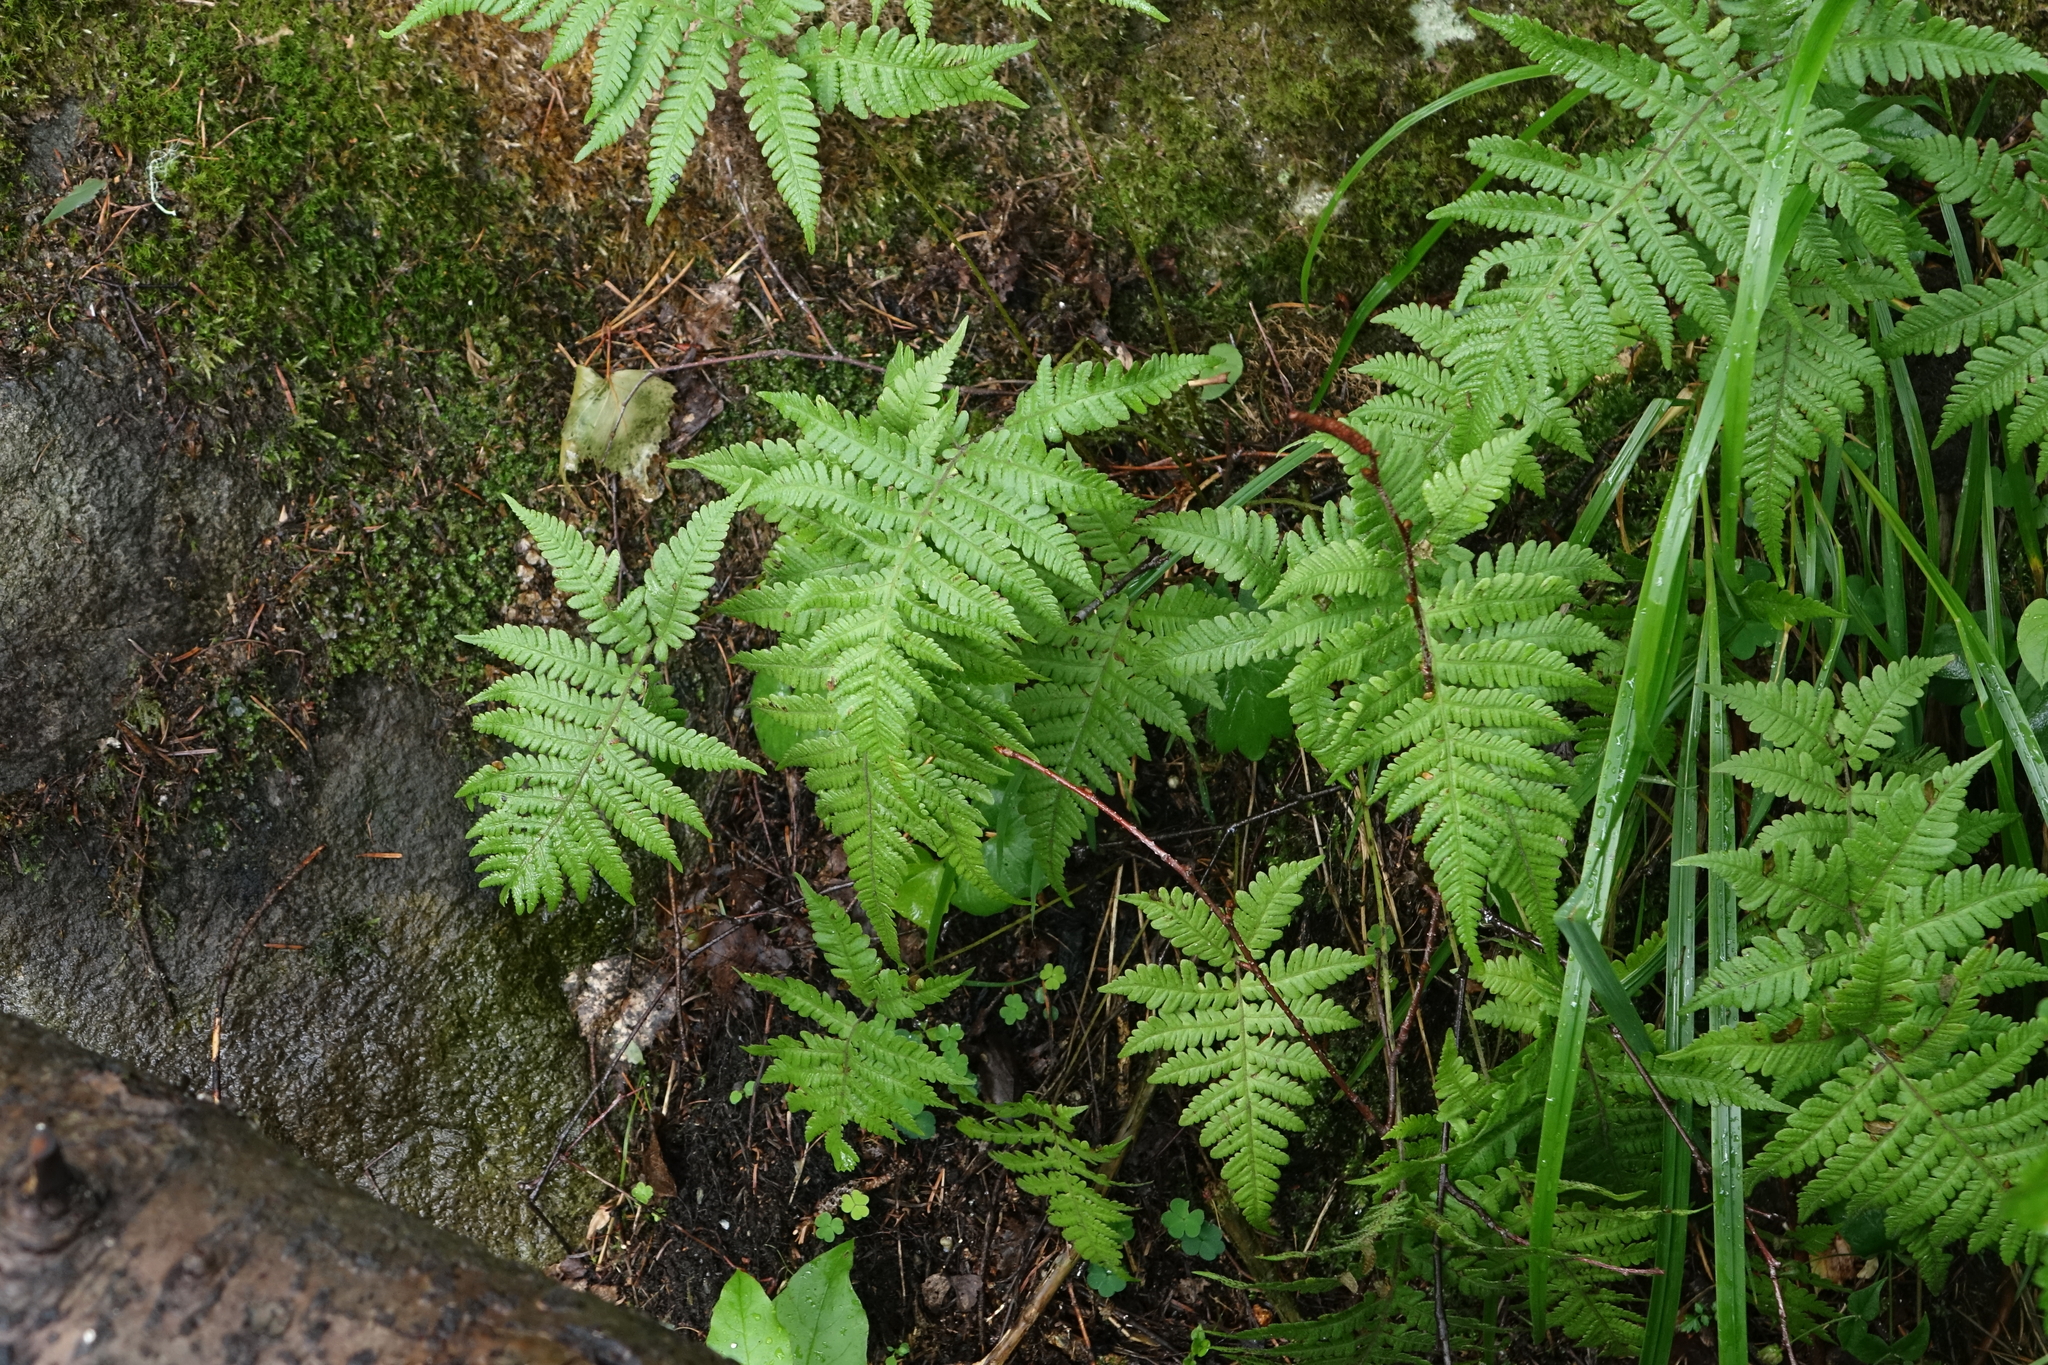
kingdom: Plantae
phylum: Tracheophyta
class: Polypodiopsida
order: Polypodiales
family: Thelypteridaceae
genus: Phegopteris
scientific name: Phegopteris connectilis
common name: Beech fern
